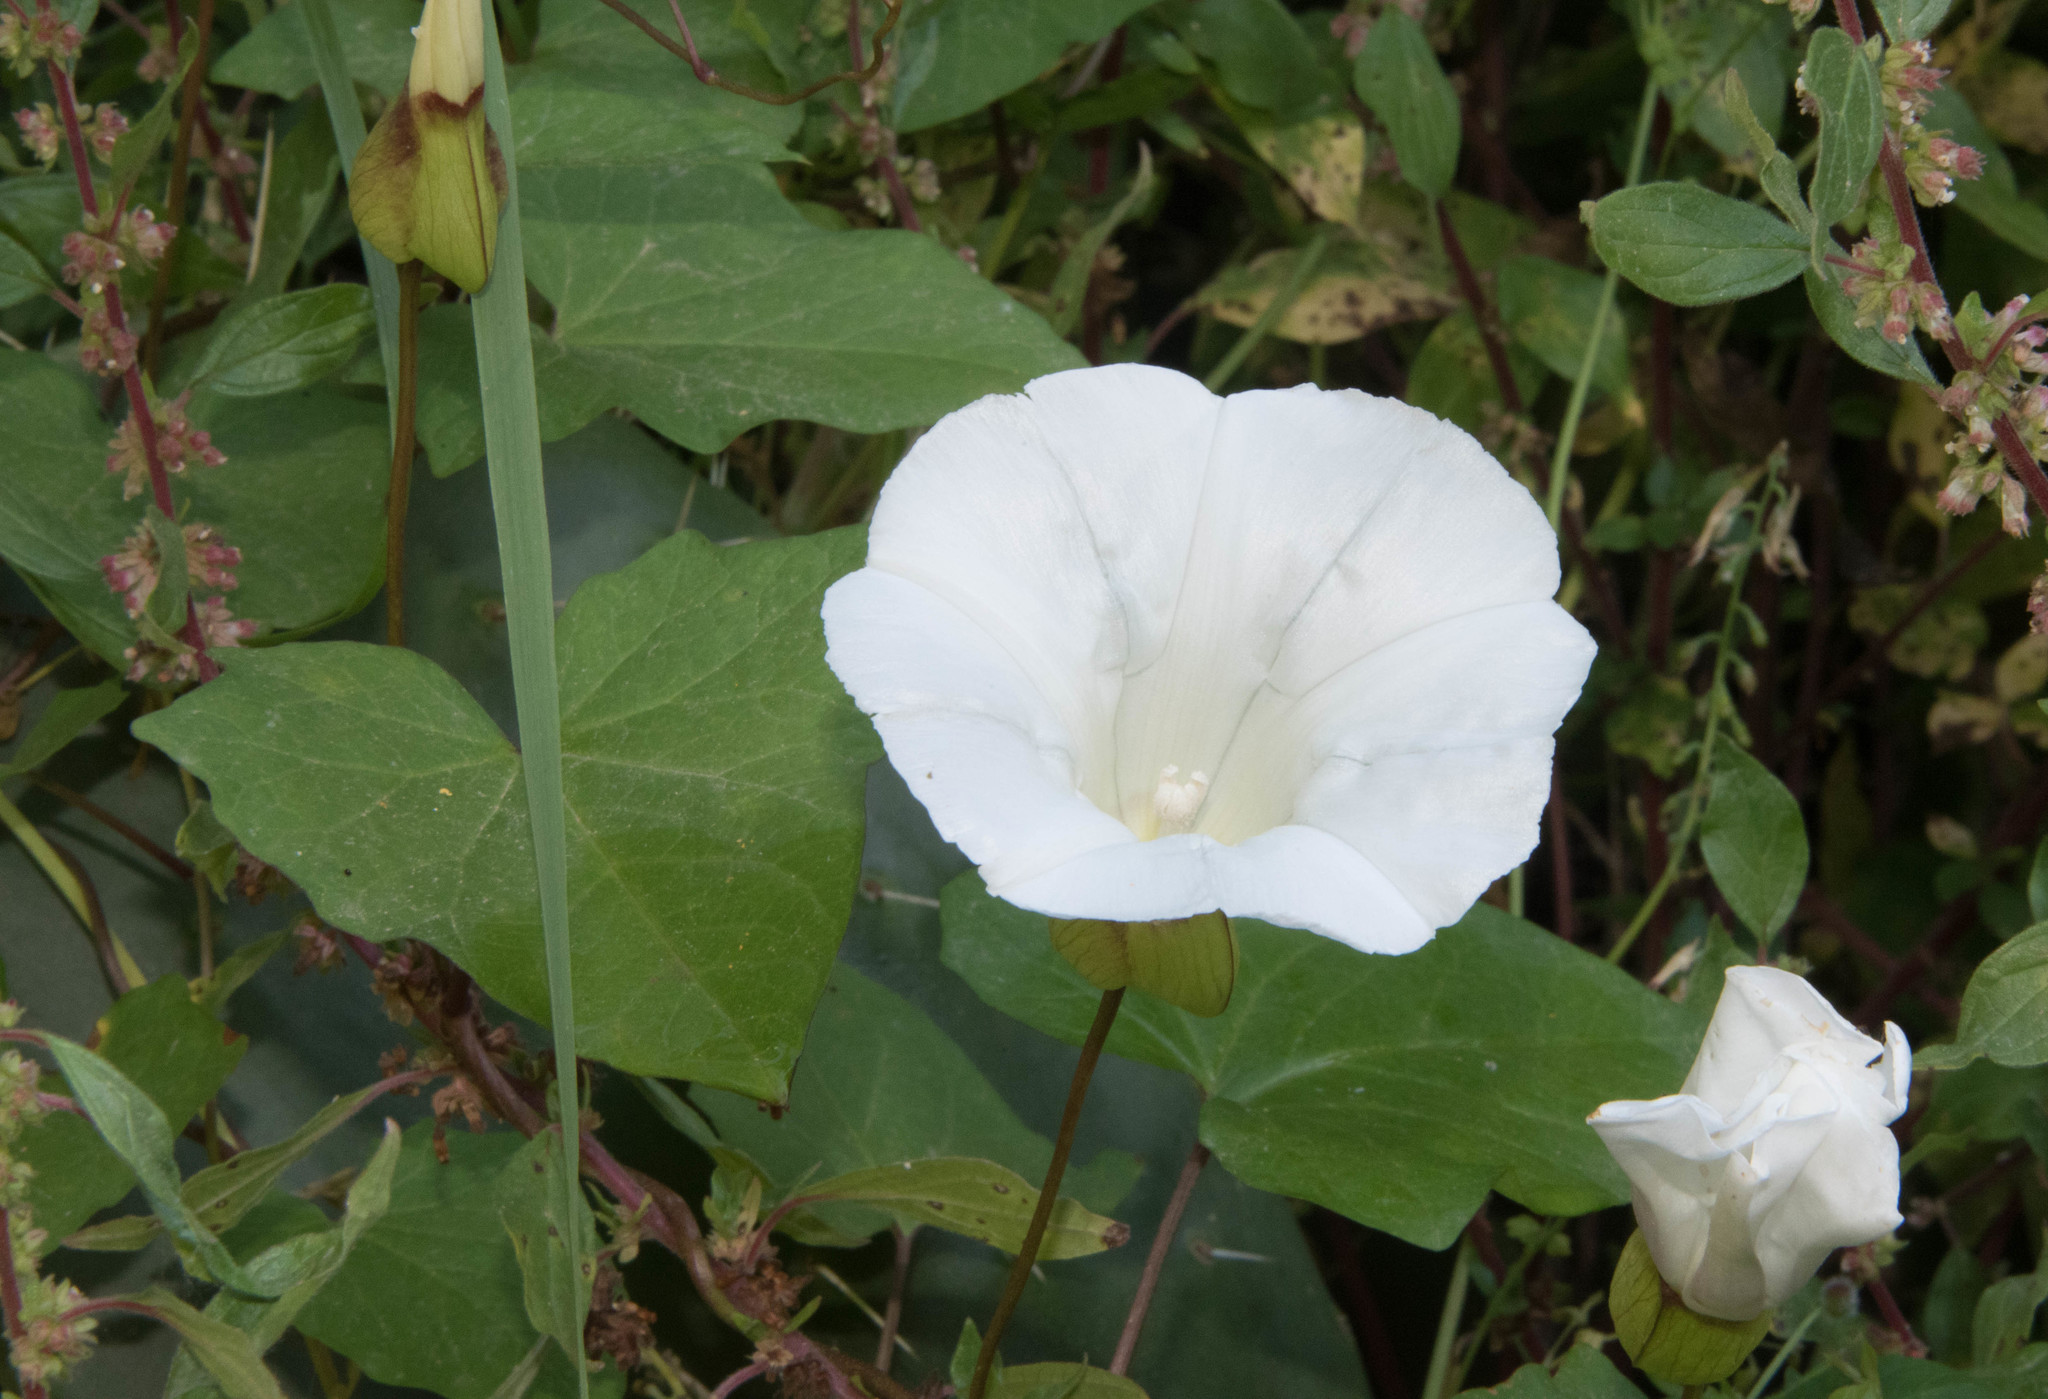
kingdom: Plantae
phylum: Tracheophyta
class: Magnoliopsida
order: Solanales
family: Convolvulaceae
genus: Calystegia
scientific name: Calystegia silvatica
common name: Large bindweed
